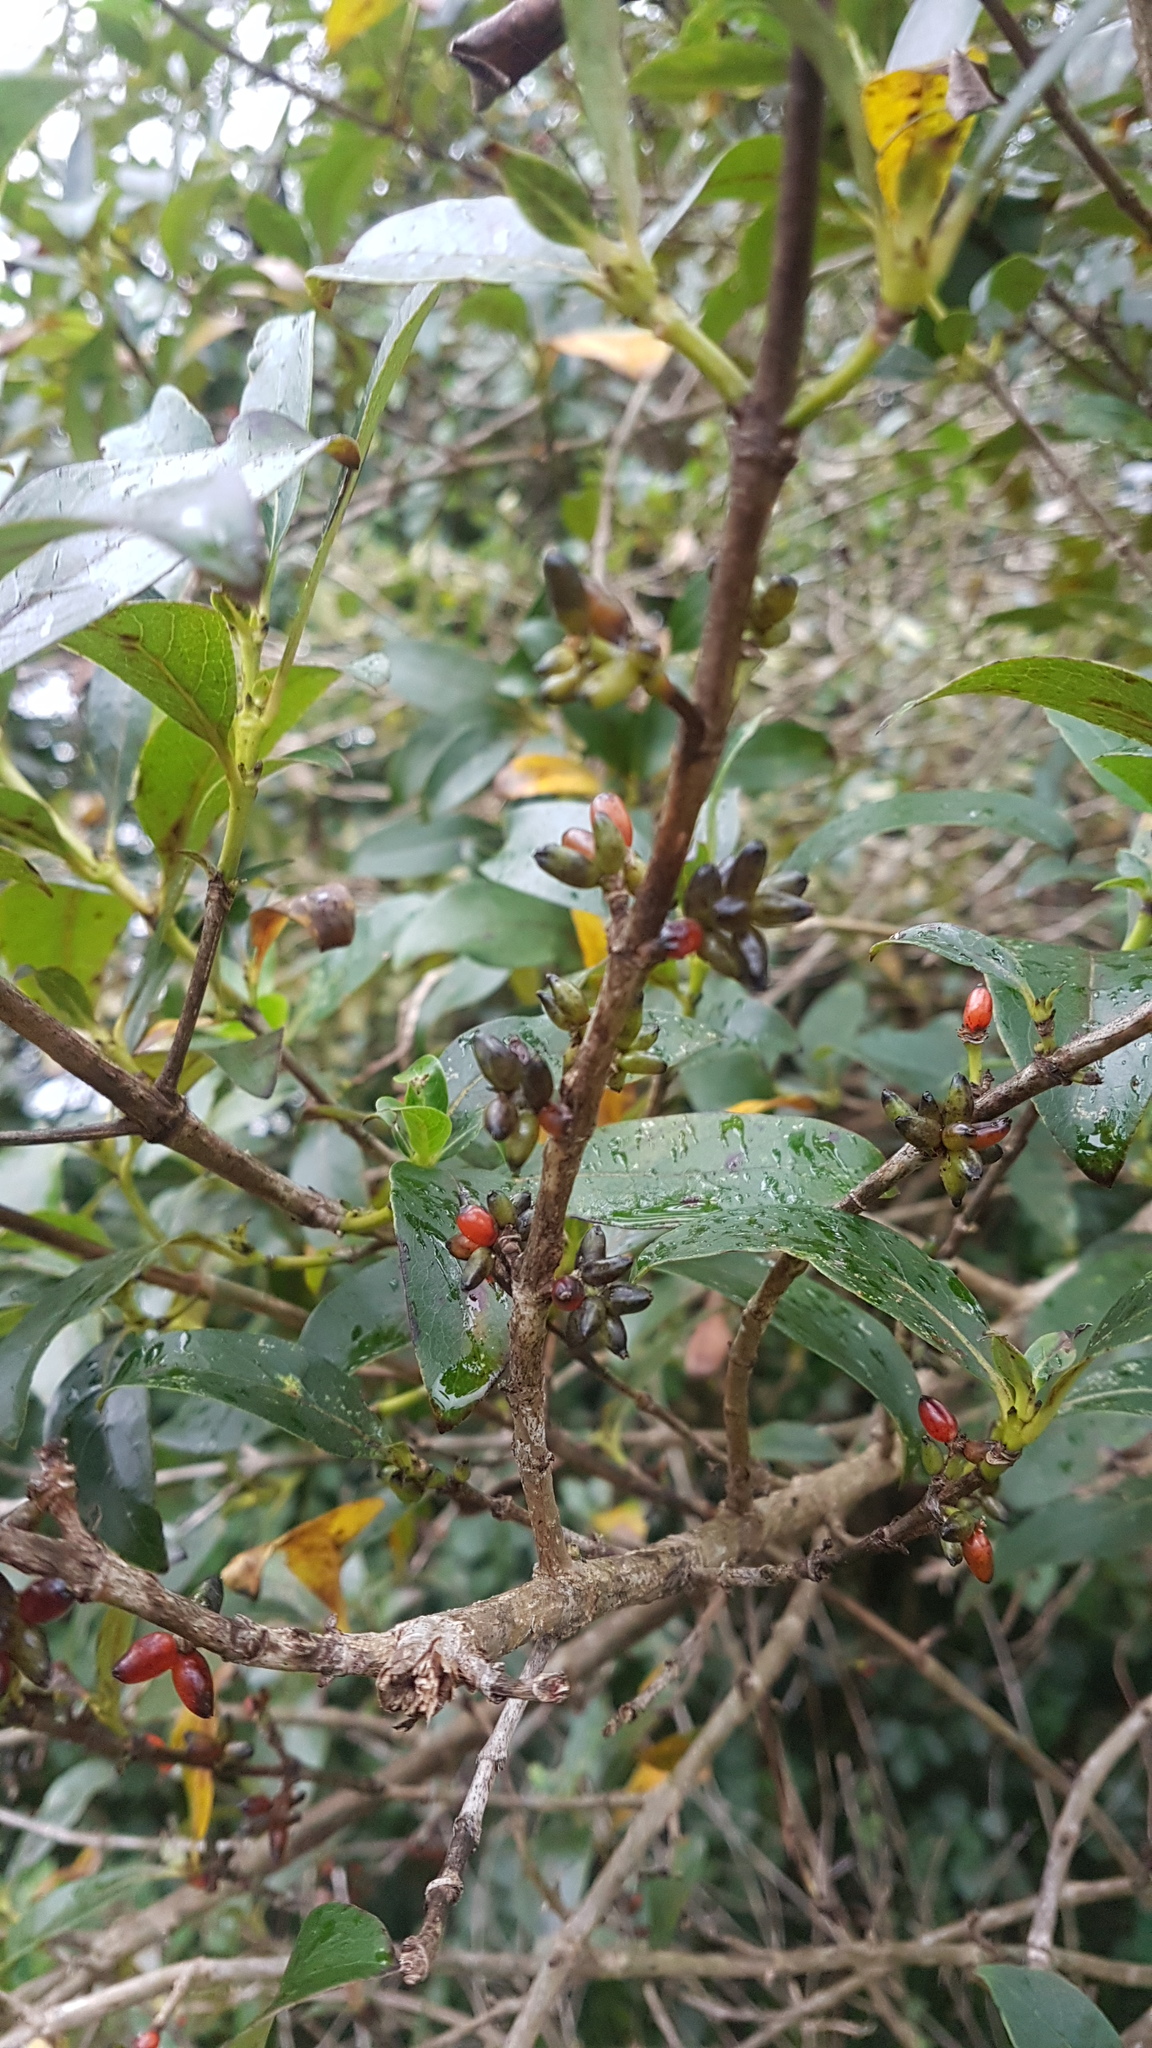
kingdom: Plantae
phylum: Tracheophyta
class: Magnoliopsida
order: Gentianales
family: Rubiaceae
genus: Coprosma
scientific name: Coprosma robusta
